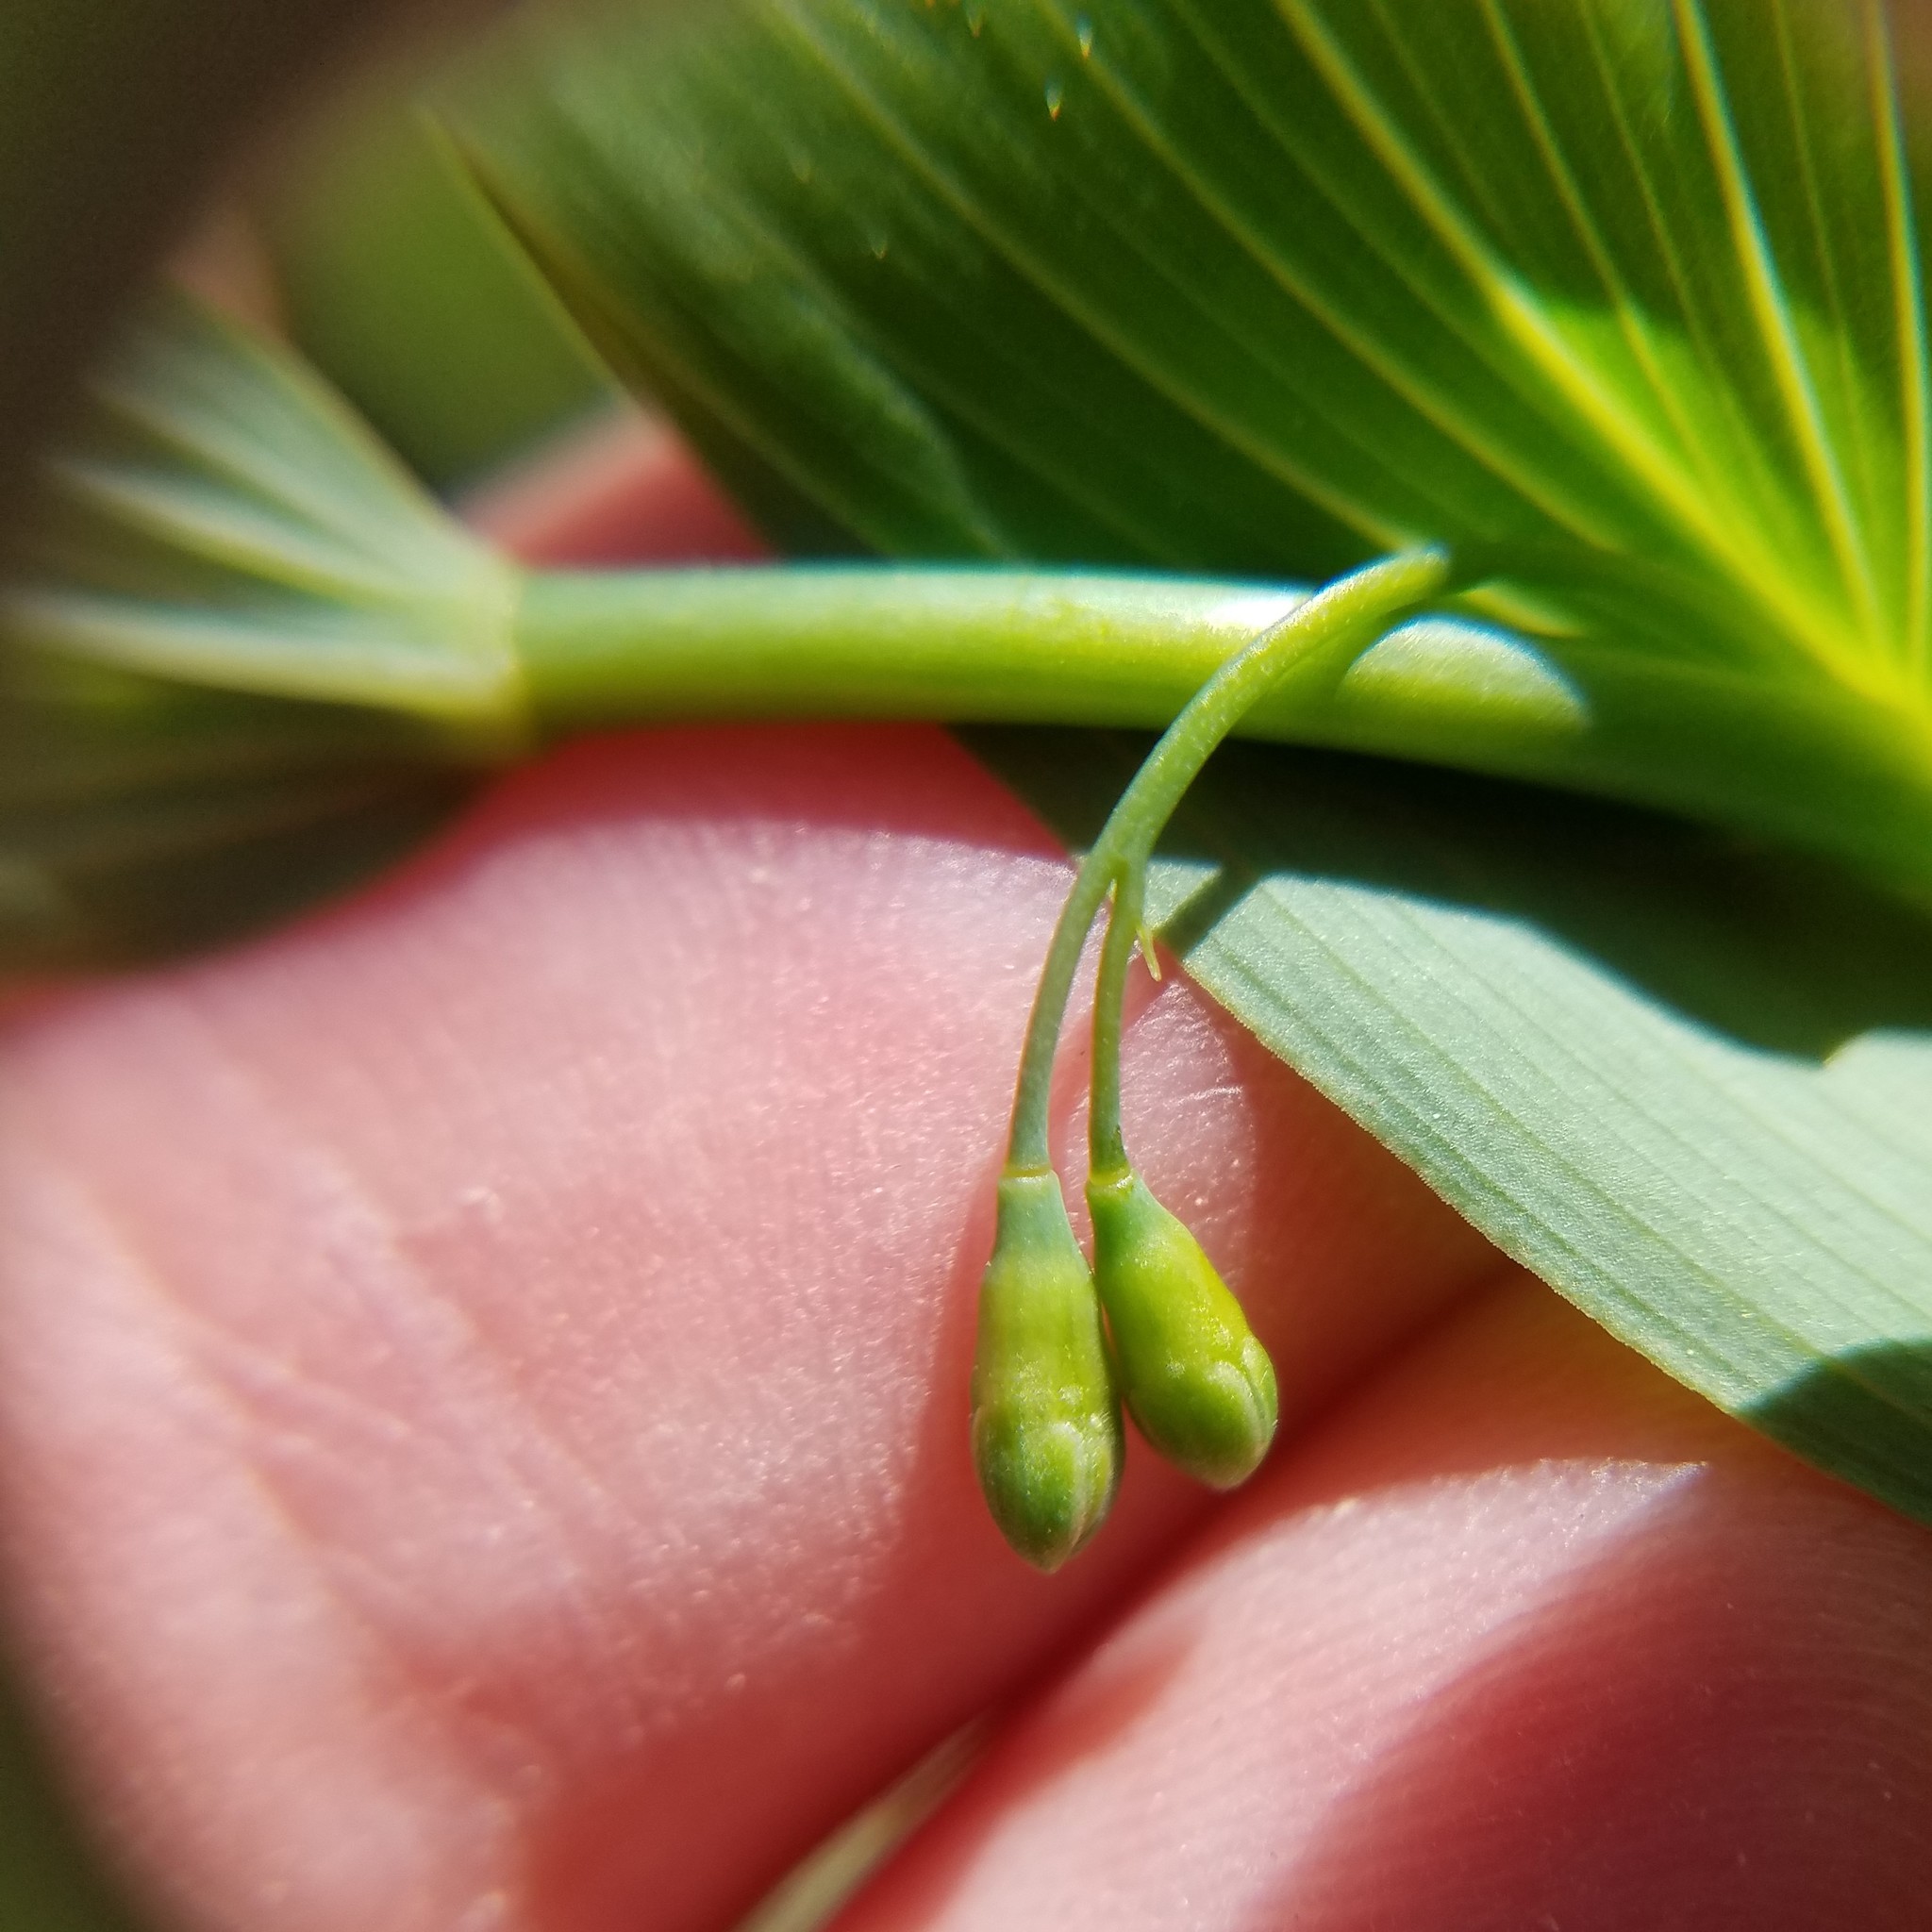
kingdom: Plantae
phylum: Tracheophyta
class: Liliopsida
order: Asparagales
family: Asparagaceae
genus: Polygonatum
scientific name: Polygonatum biflorum
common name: American solomon's-seal
